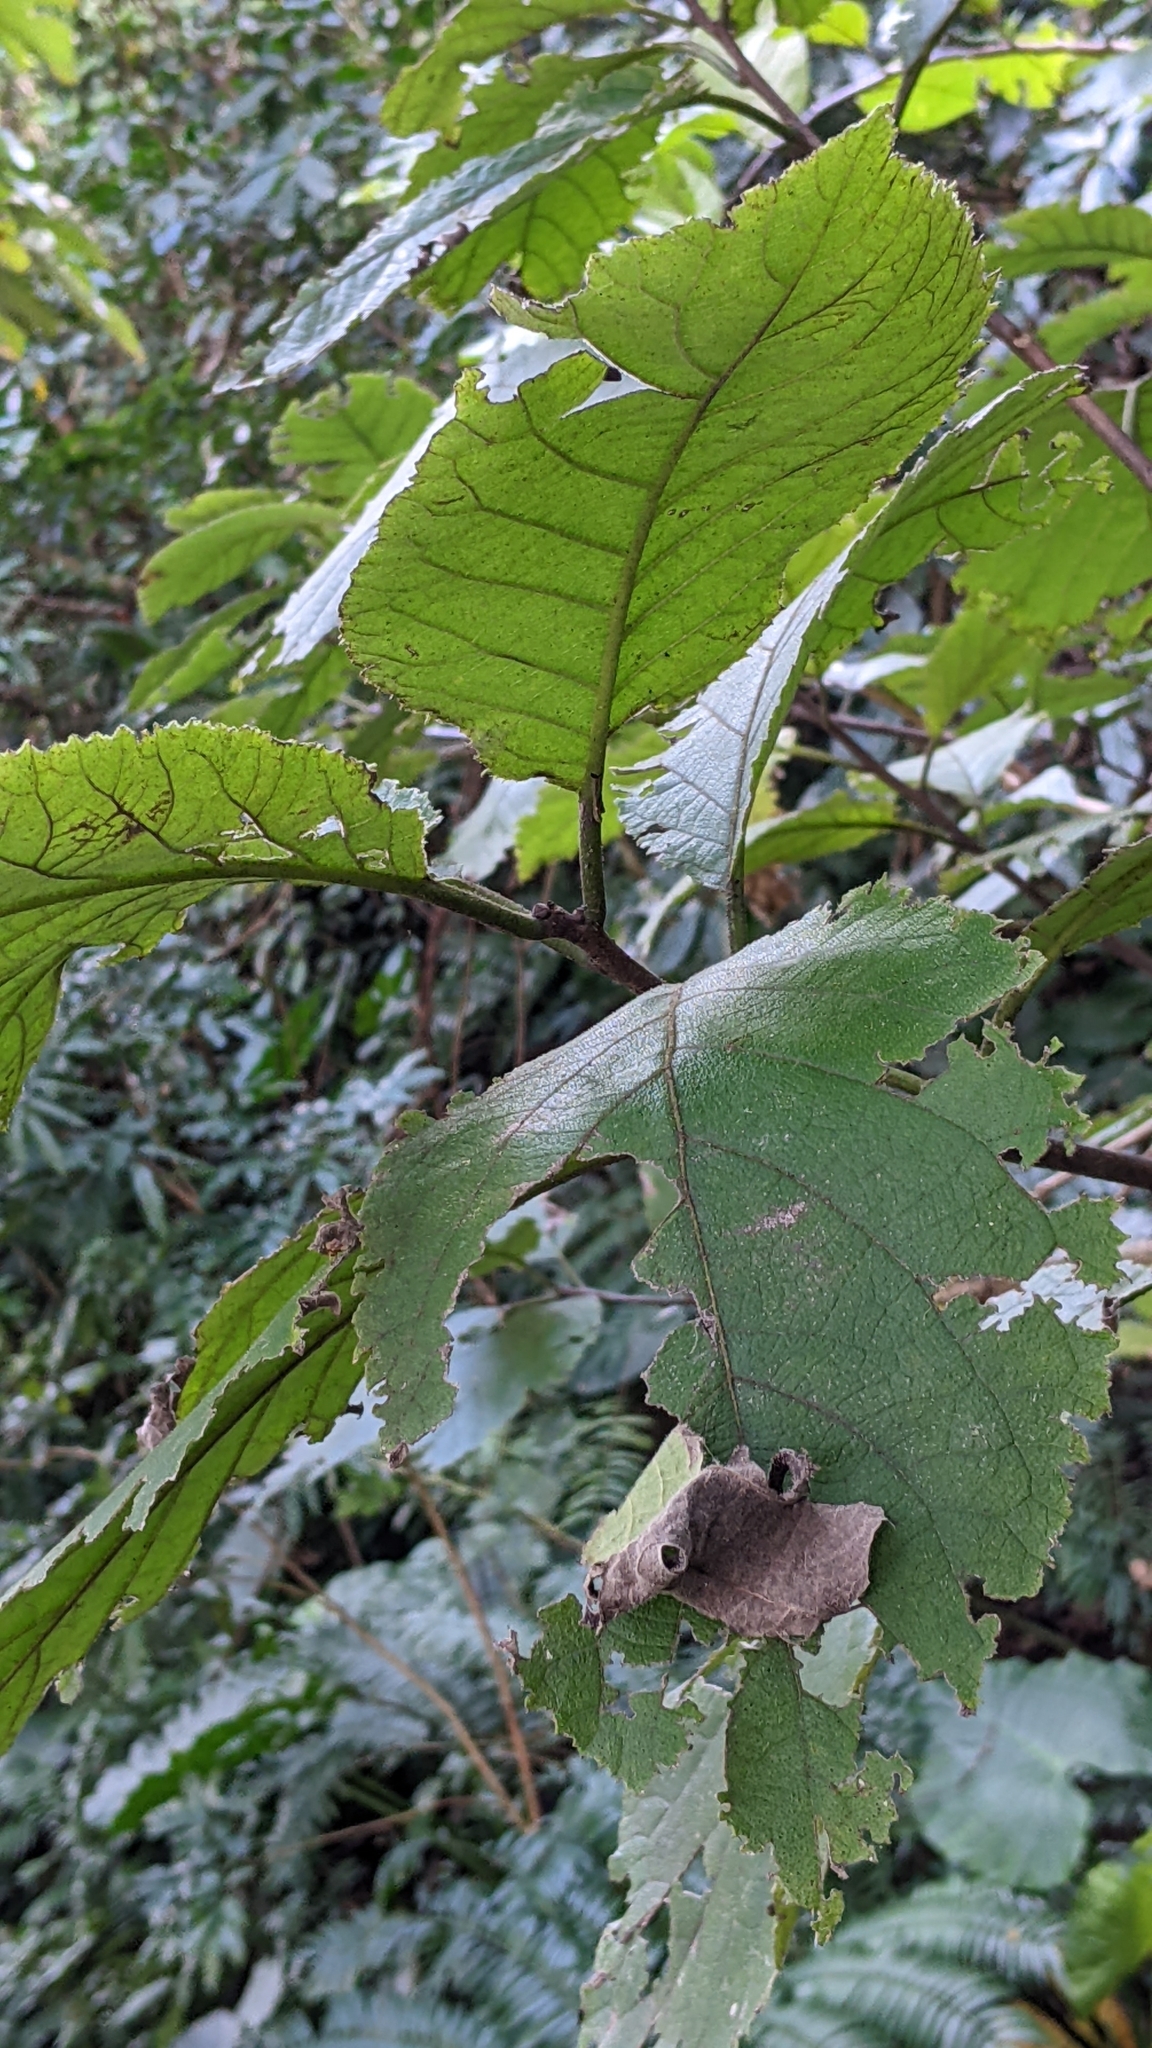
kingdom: Plantae
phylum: Tracheophyta
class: Magnoliopsida
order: Boraginales
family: Ehretiaceae
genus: Ehretia
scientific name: Ehretia dicksonii
